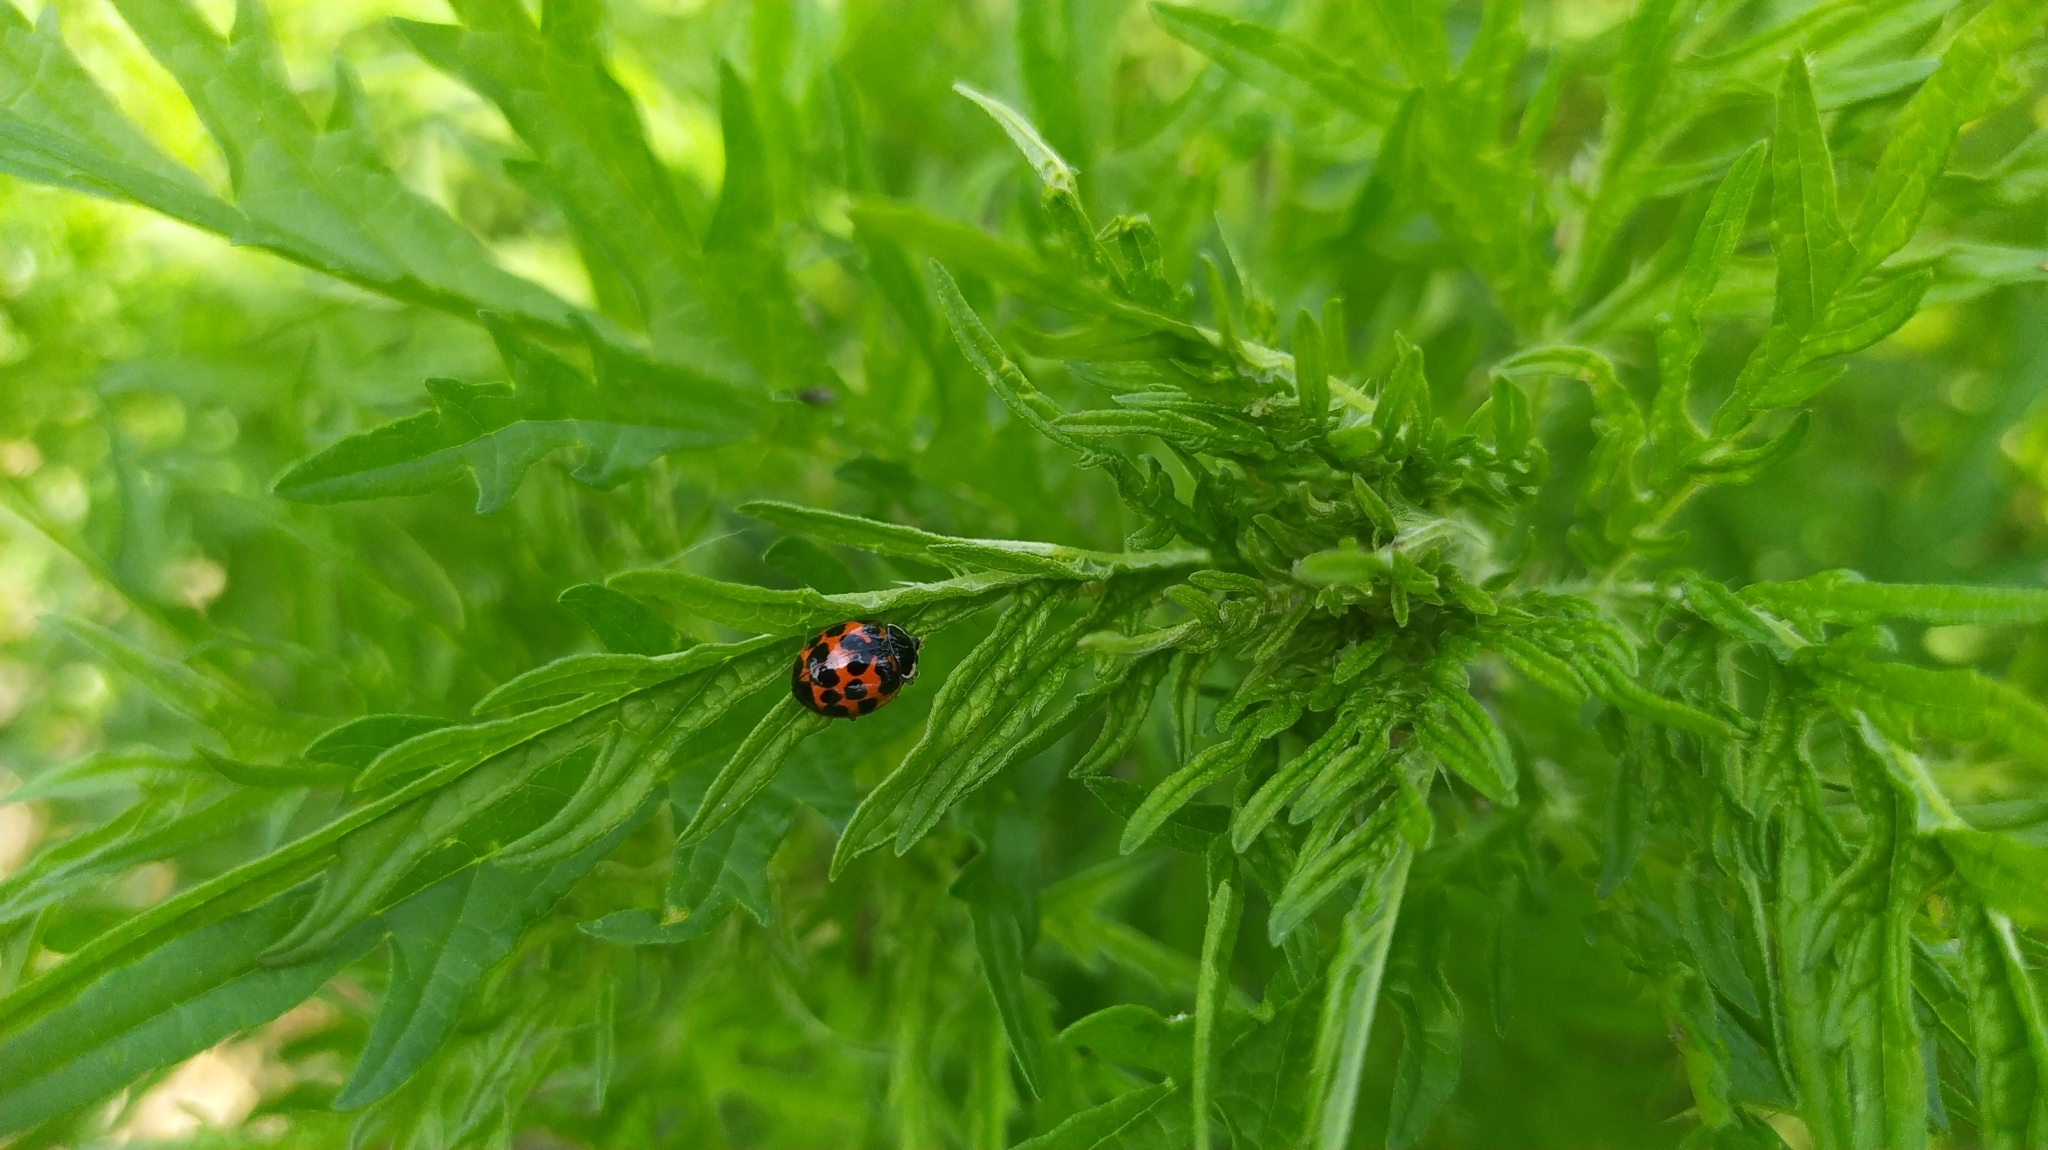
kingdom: Animalia
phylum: Arthropoda
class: Insecta
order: Coleoptera
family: Coccinellidae
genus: Harmonia
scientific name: Harmonia axyridis
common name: Harlequin ladybird
